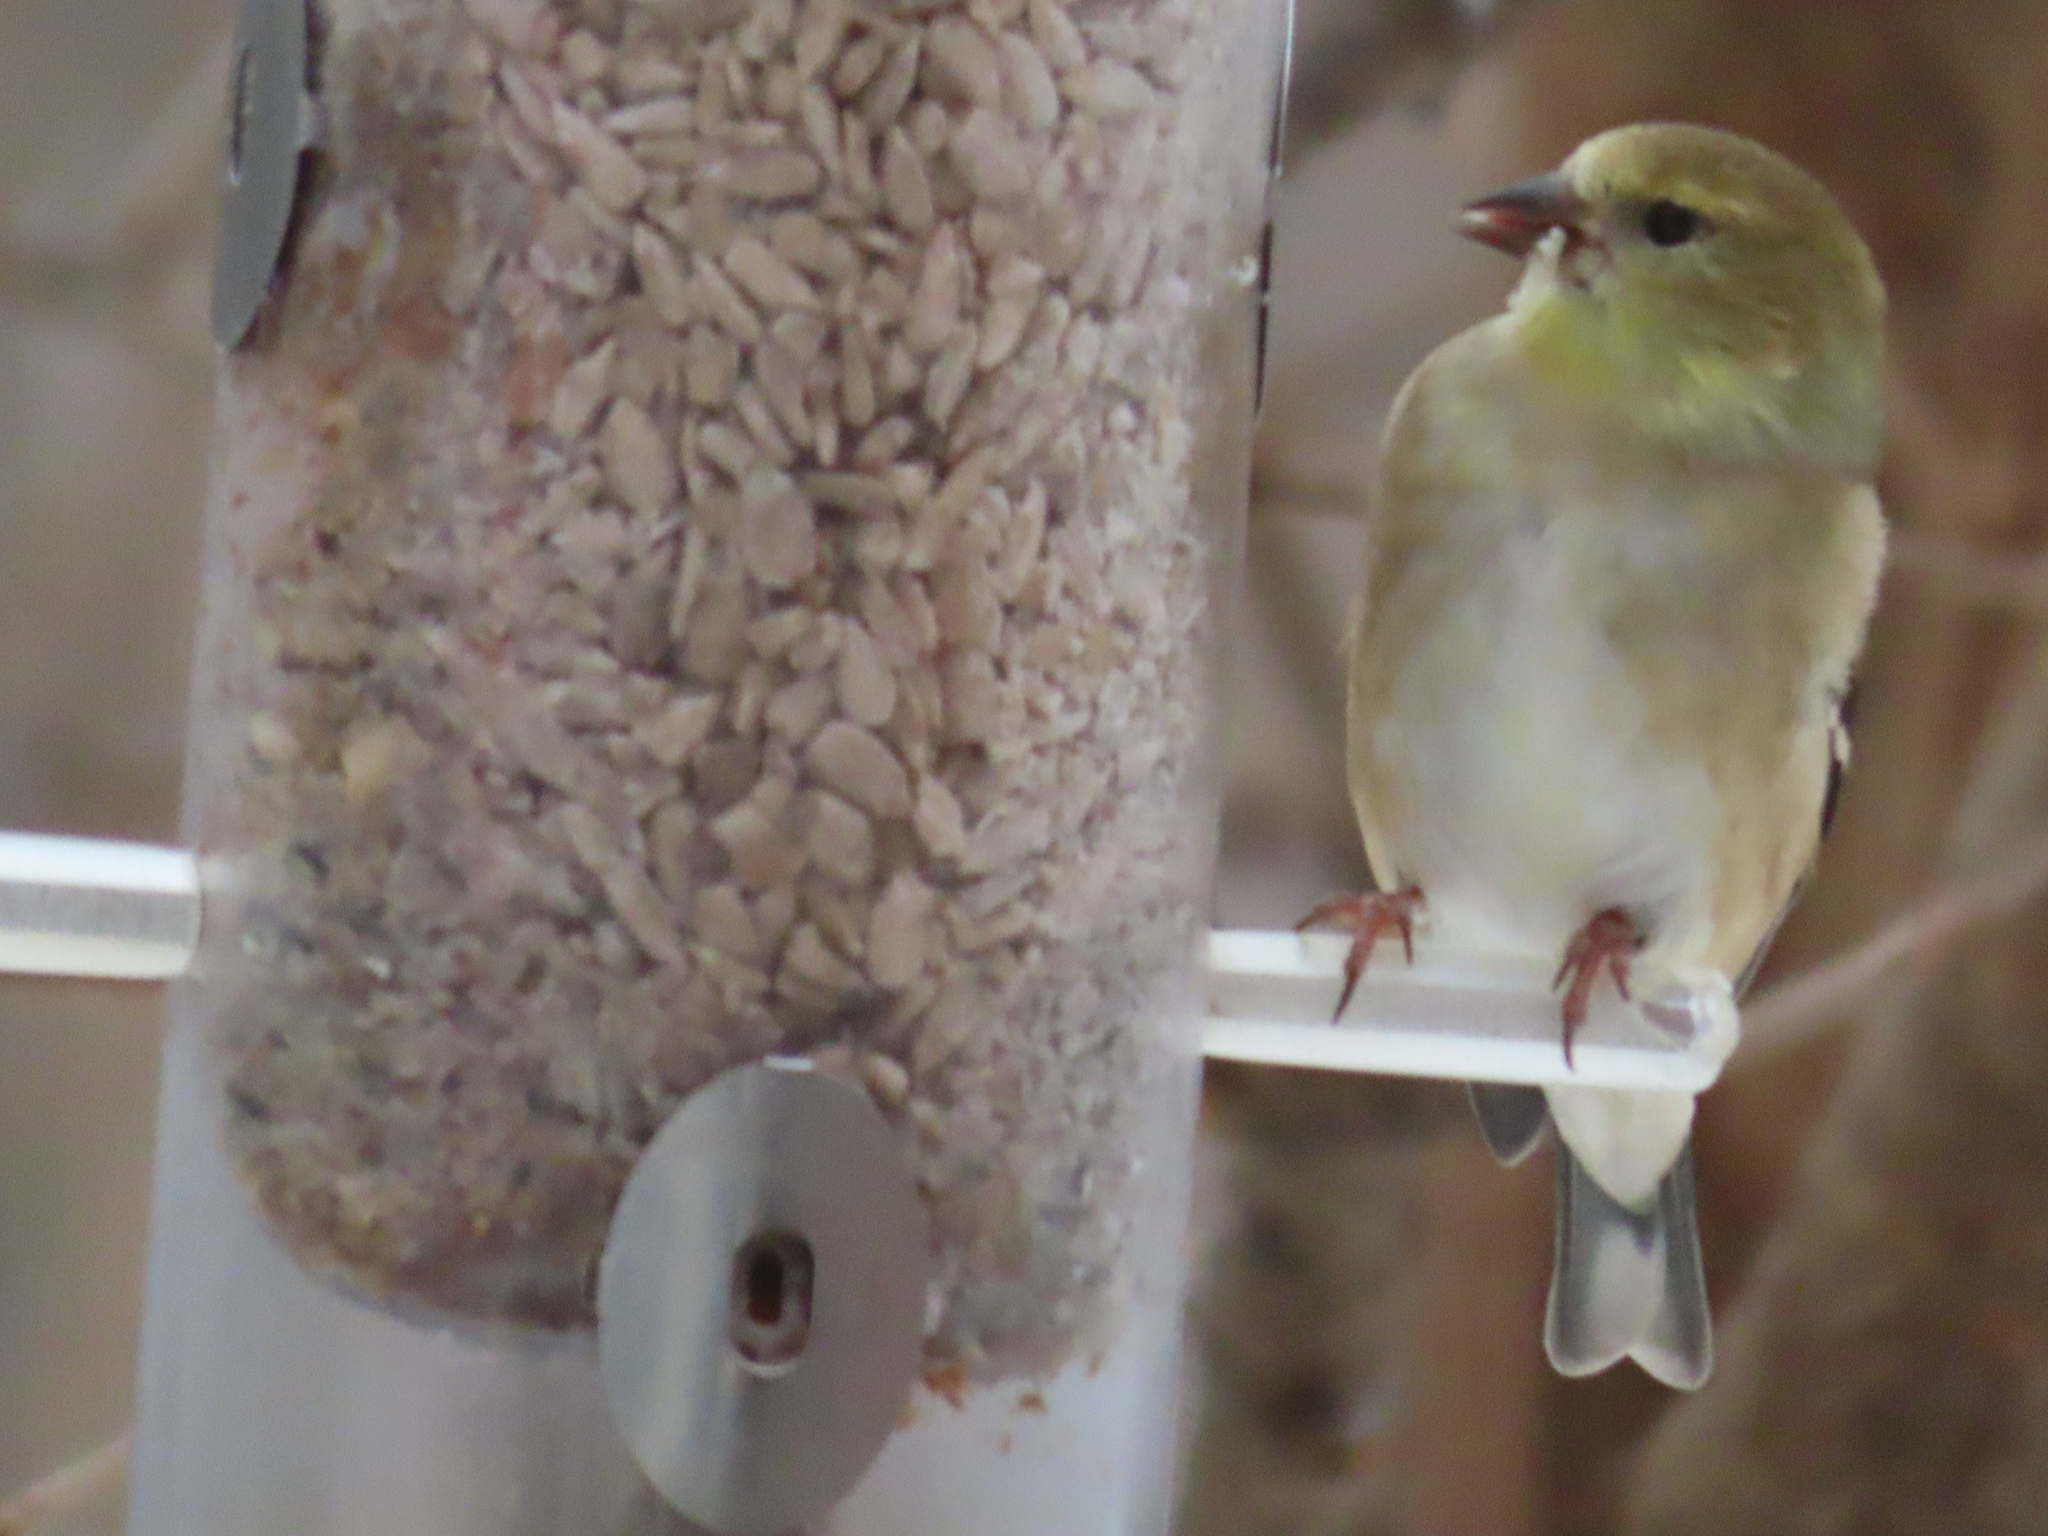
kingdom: Animalia
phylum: Chordata
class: Aves
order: Passeriformes
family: Fringillidae
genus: Spinus
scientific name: Spinus tristis
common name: American goldfinch
